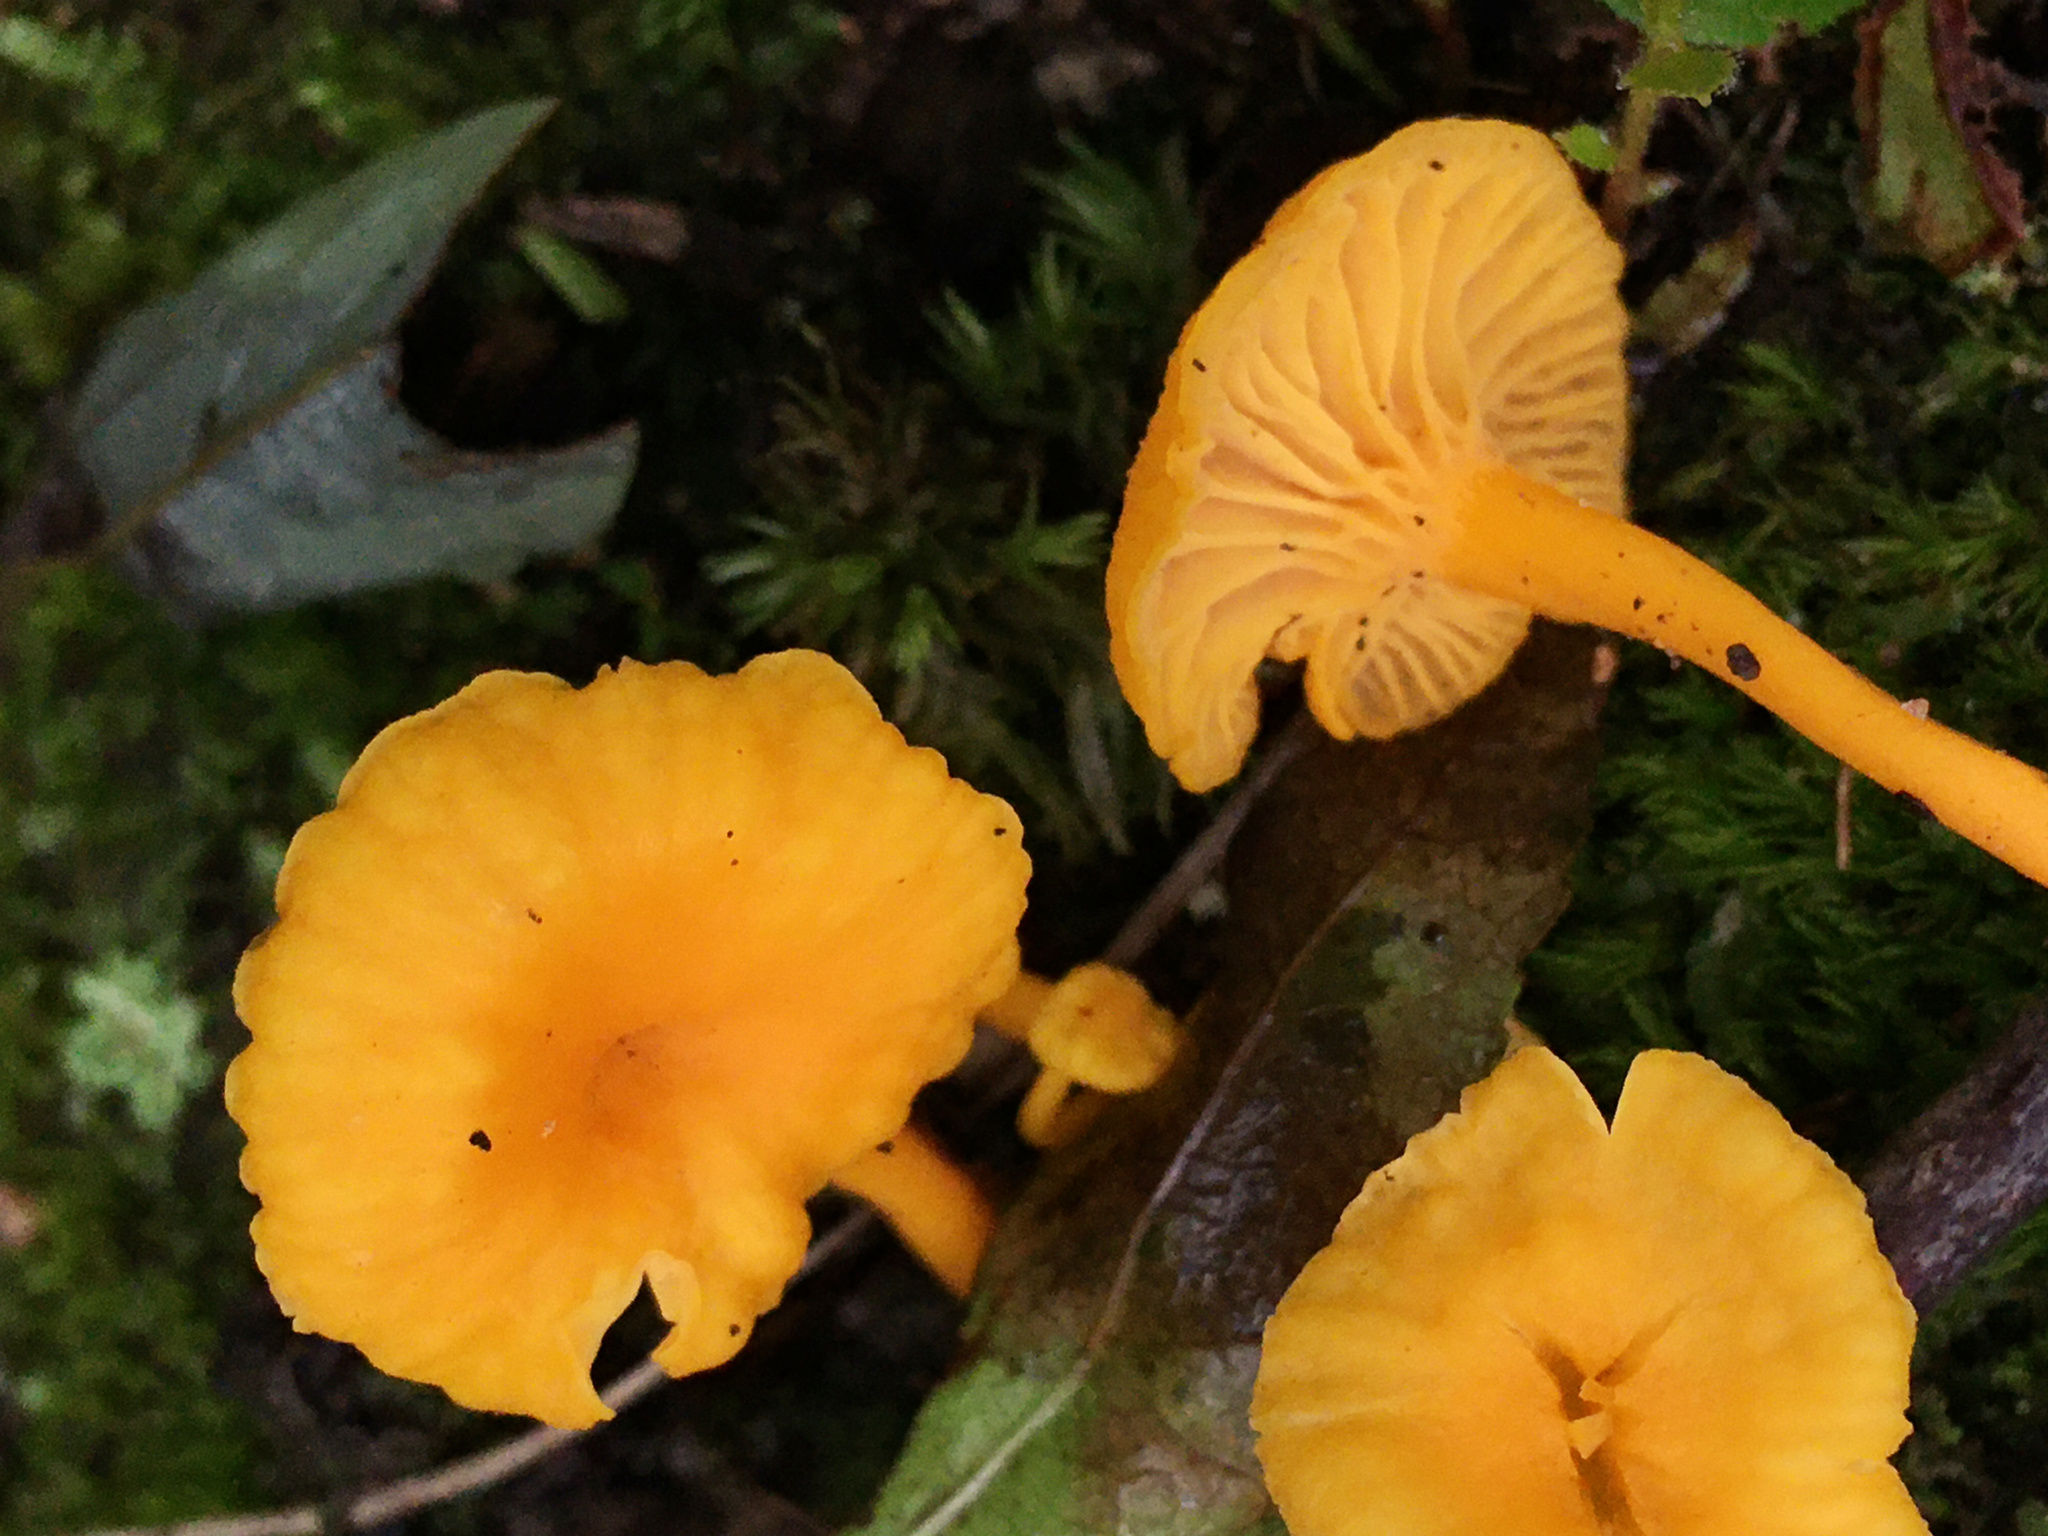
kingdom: Fungi
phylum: Basidiomycota
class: Agaricomycetes
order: Cantharellales
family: Hydnaceae
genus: Cantharellus
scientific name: Cantharellus minor
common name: Small chanterelle
